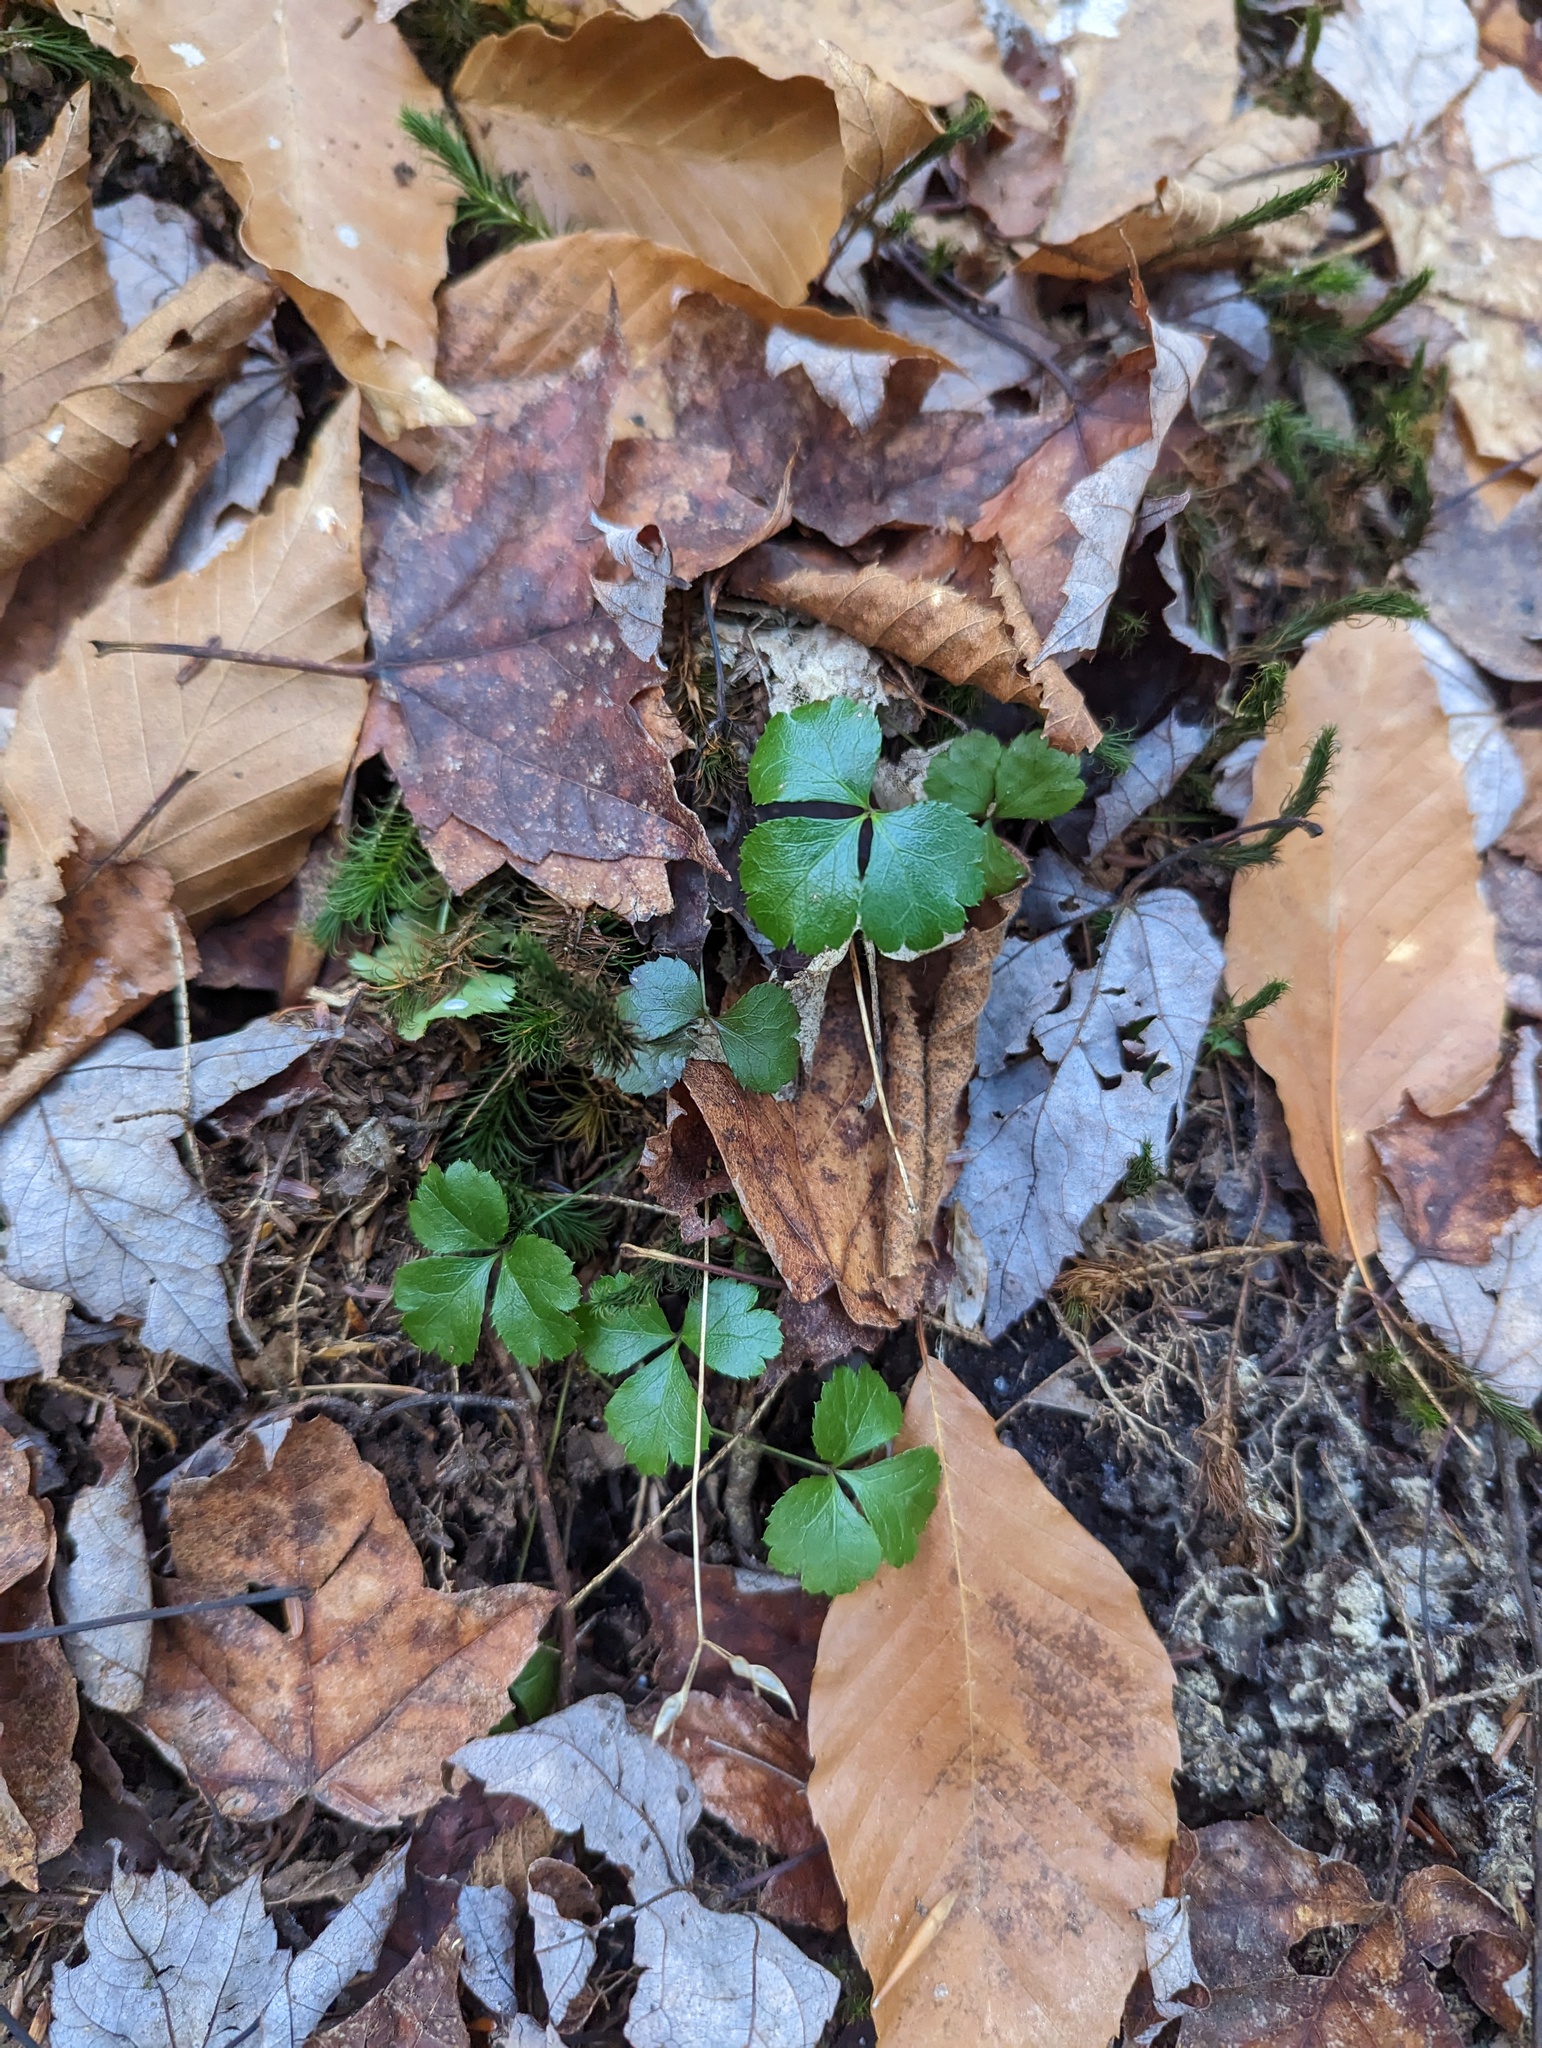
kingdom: Plantae
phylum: Tracheophyta
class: Magnoliopsida
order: Ranunculales
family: Ranunculaceae
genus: Coptis
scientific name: Coptis trifolia
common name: Canker-root
